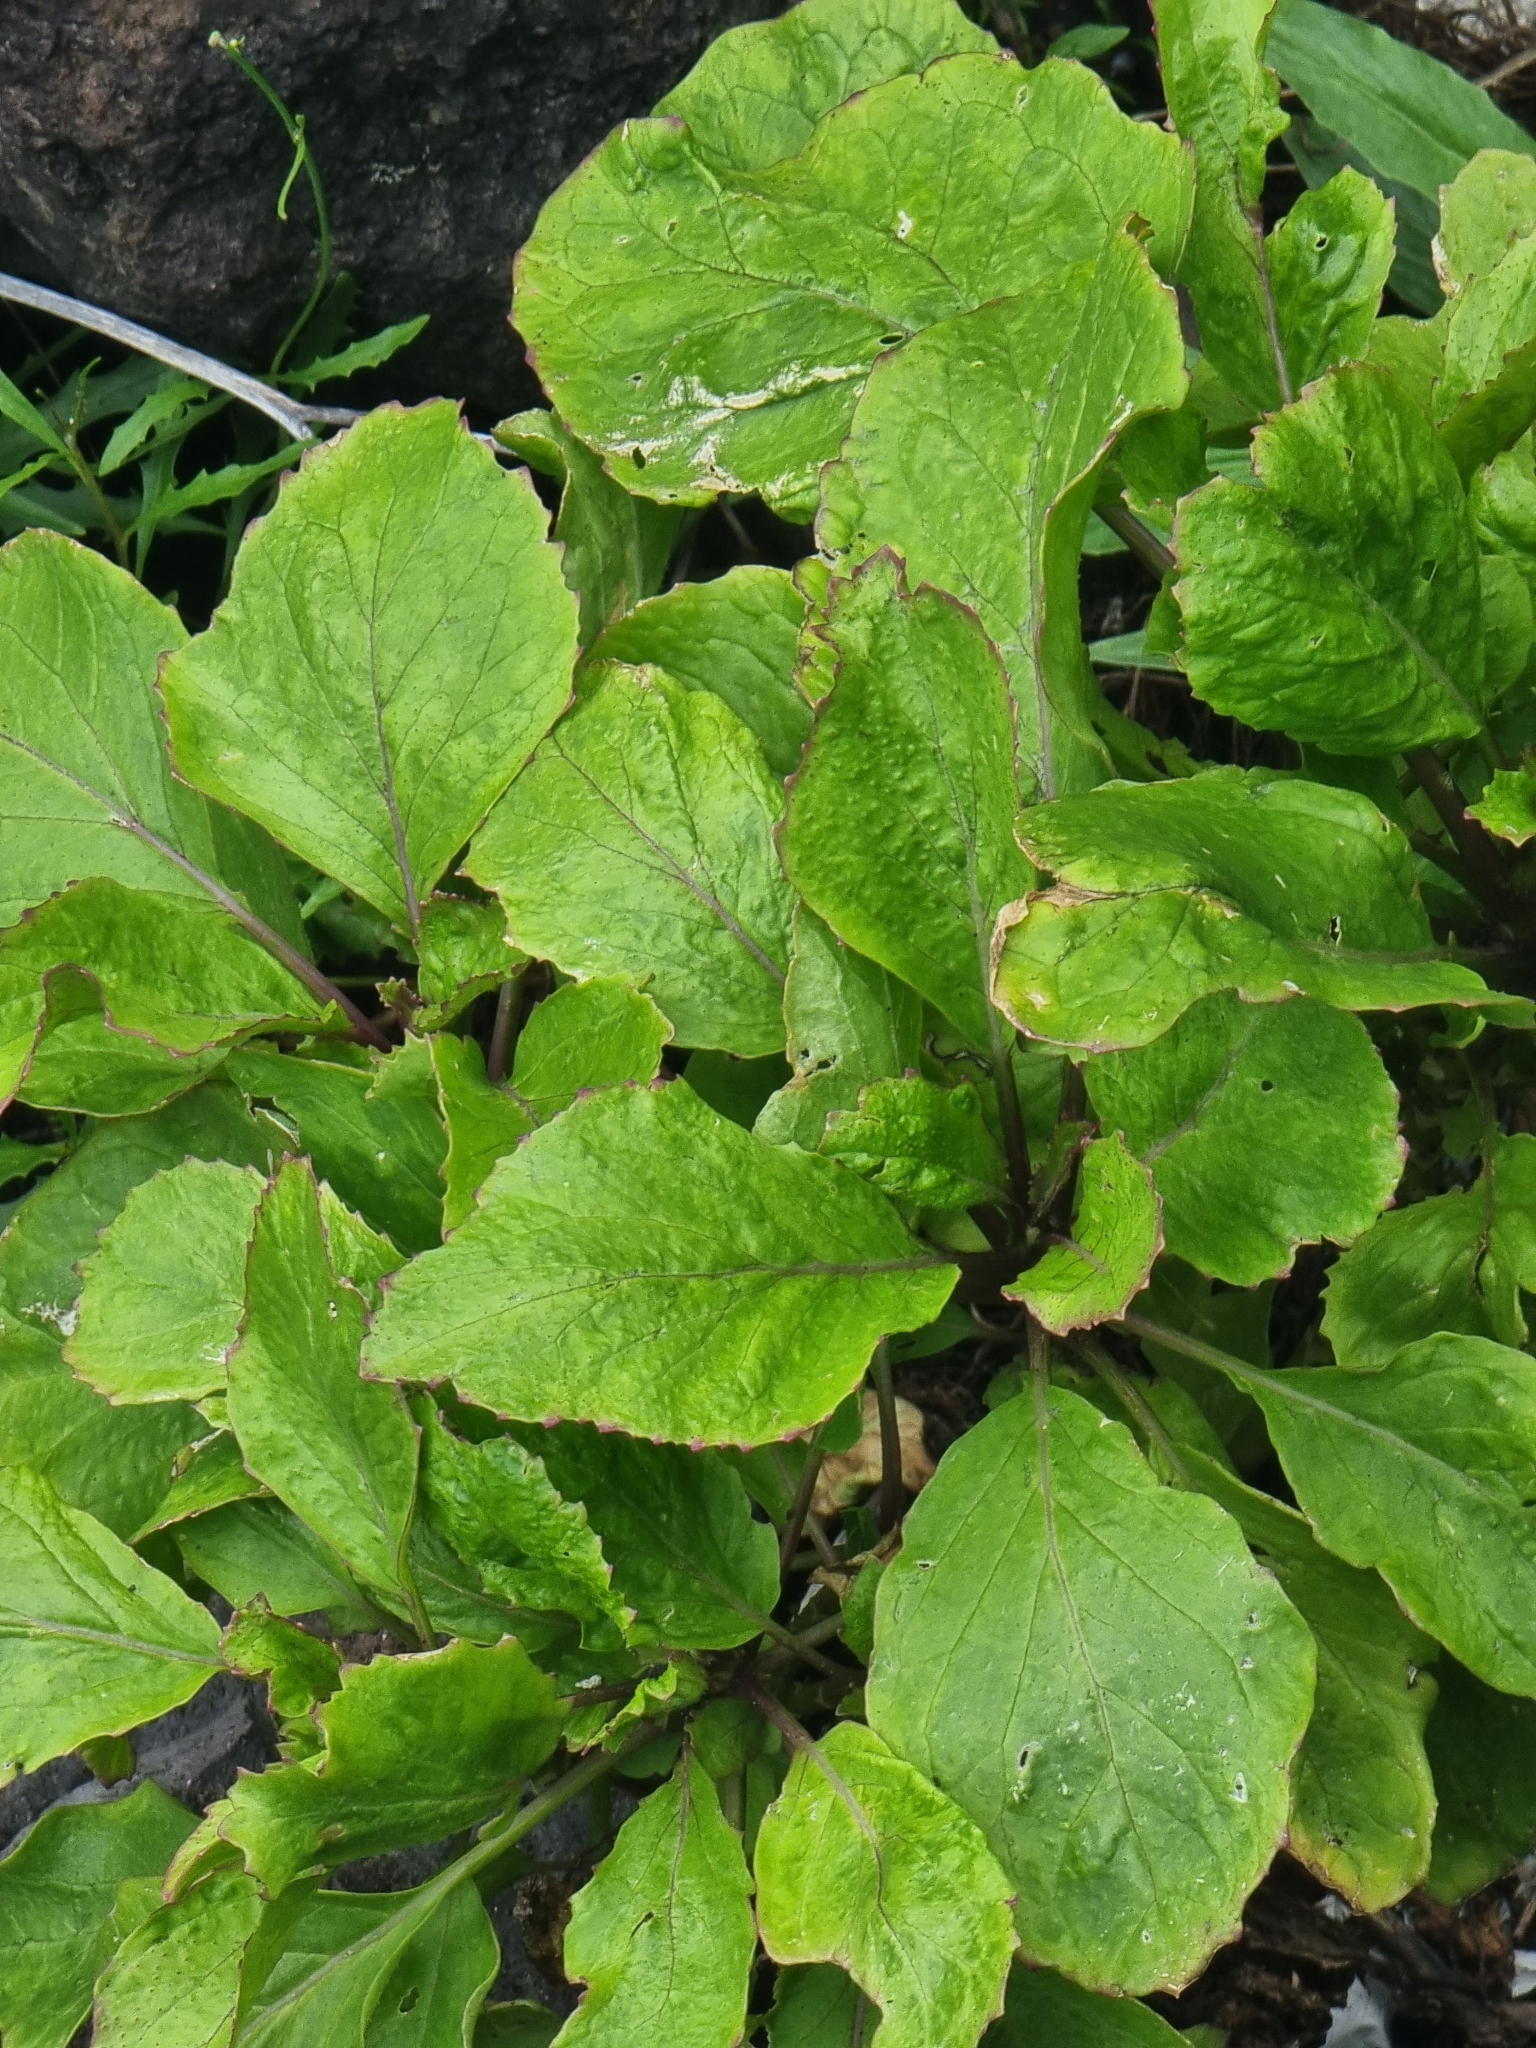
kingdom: Plantae
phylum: Tracheophyta
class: Magnoliopsida
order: Brassicales
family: Brassicaceae
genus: Sinapidendron
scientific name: Sinapidendron rupestre
